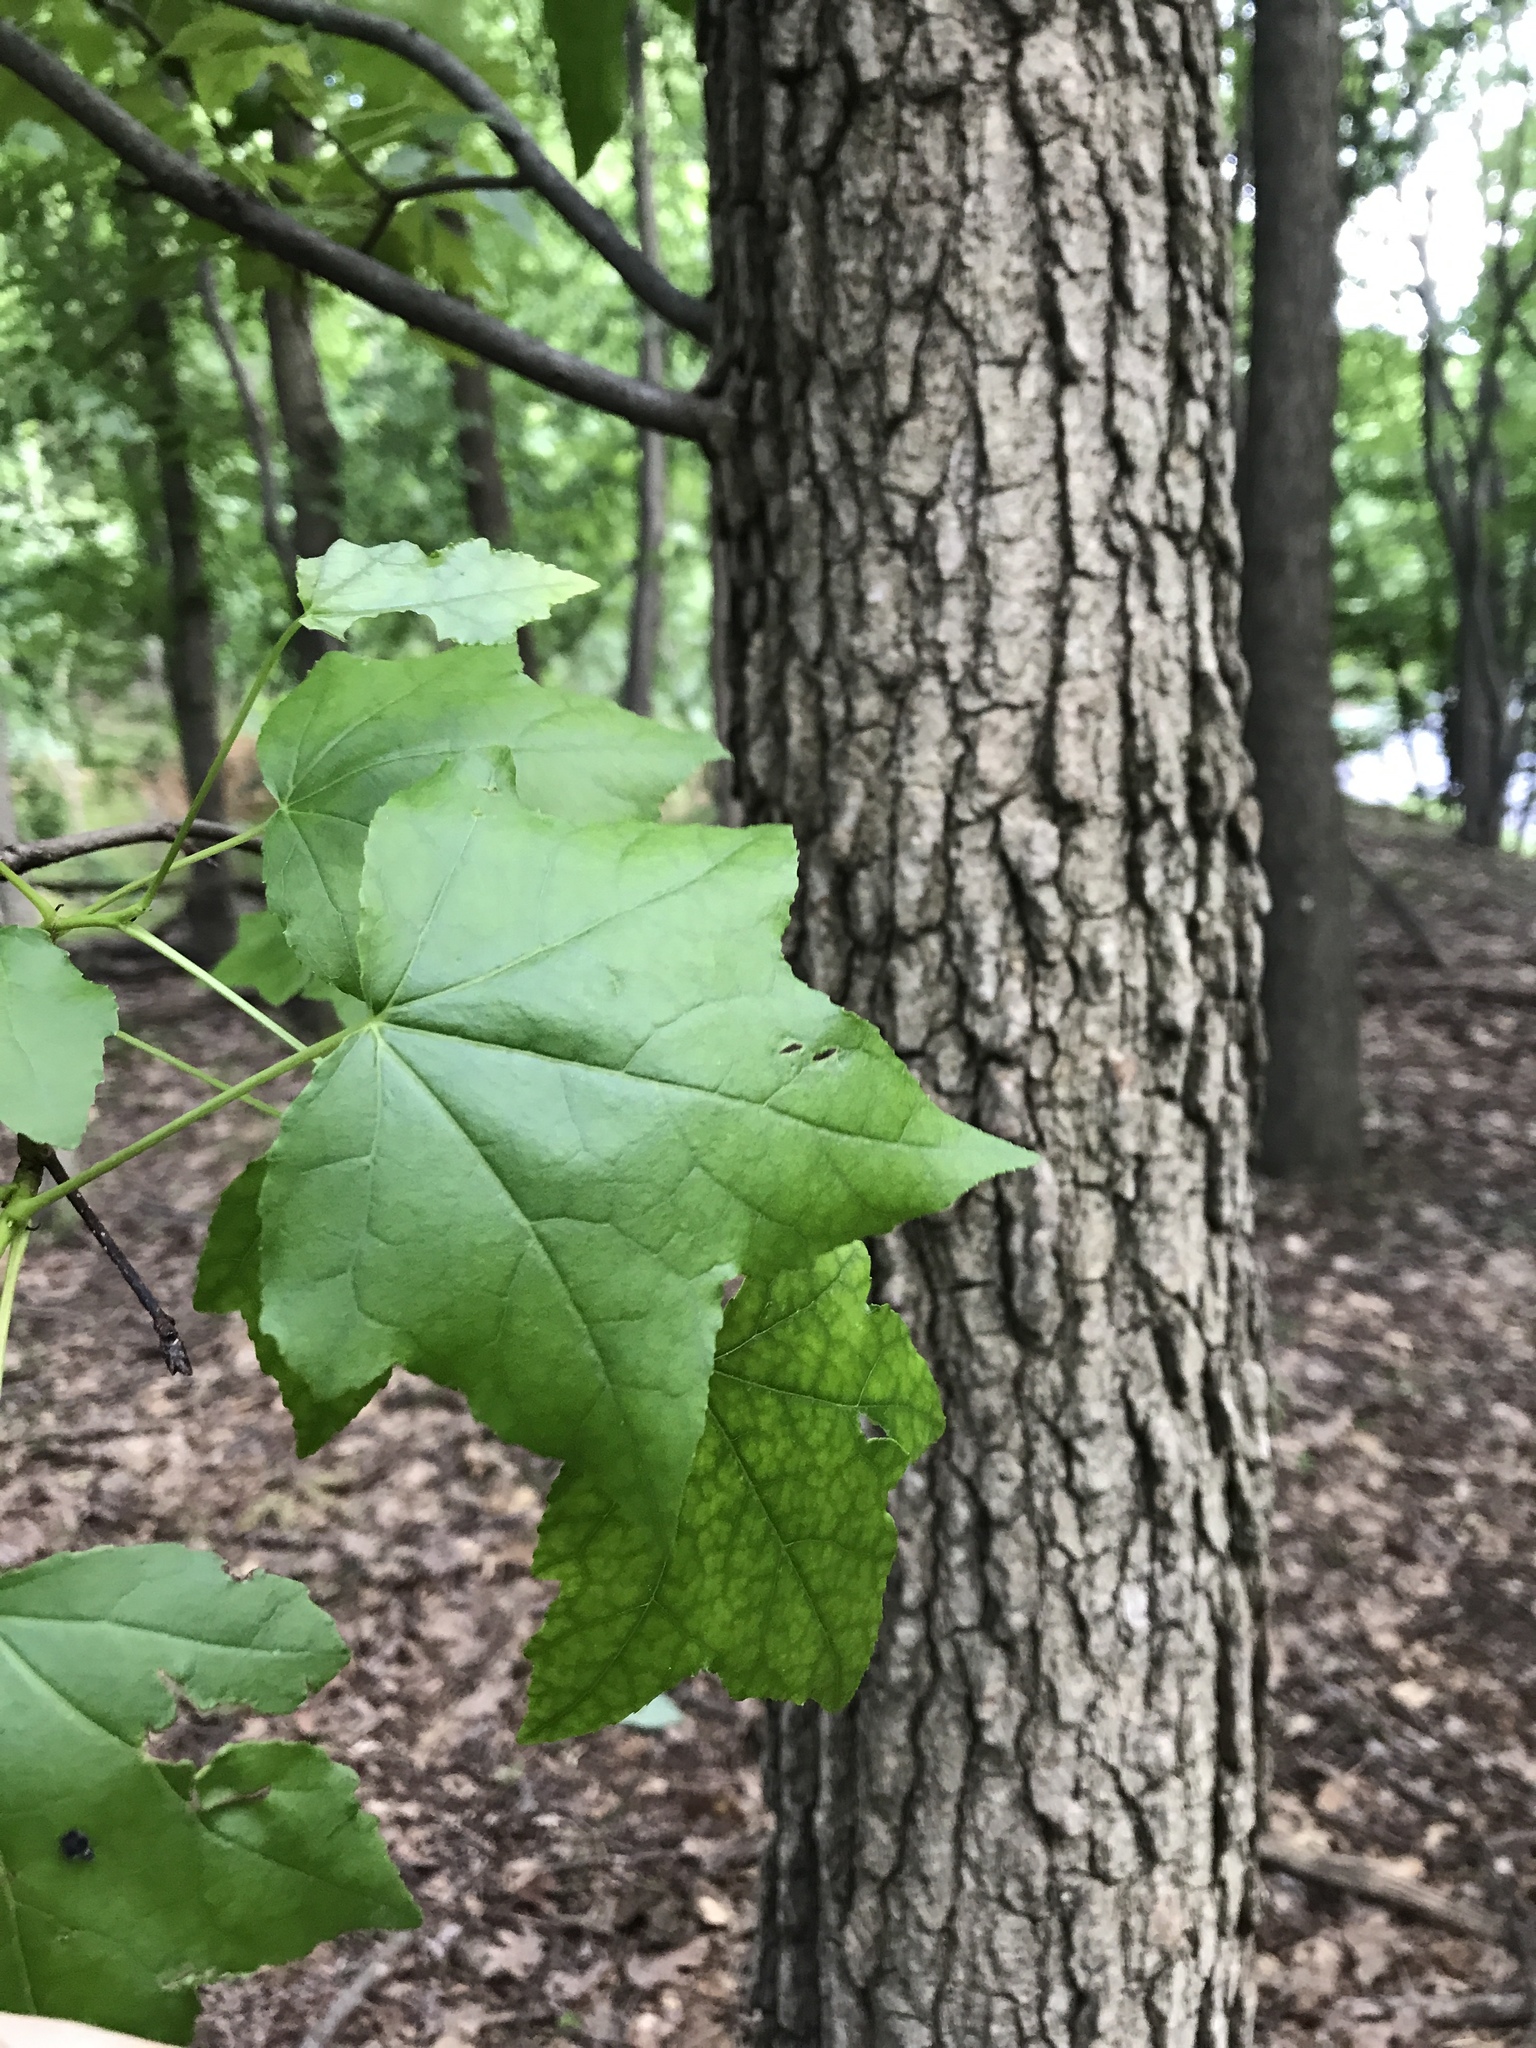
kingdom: Plantae
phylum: Tracheophyta
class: Magnoliopsida
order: Saxifragales
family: Altingiaceae
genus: Liquidambar
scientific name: Liquidambar styraciflua
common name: Sweet gum
